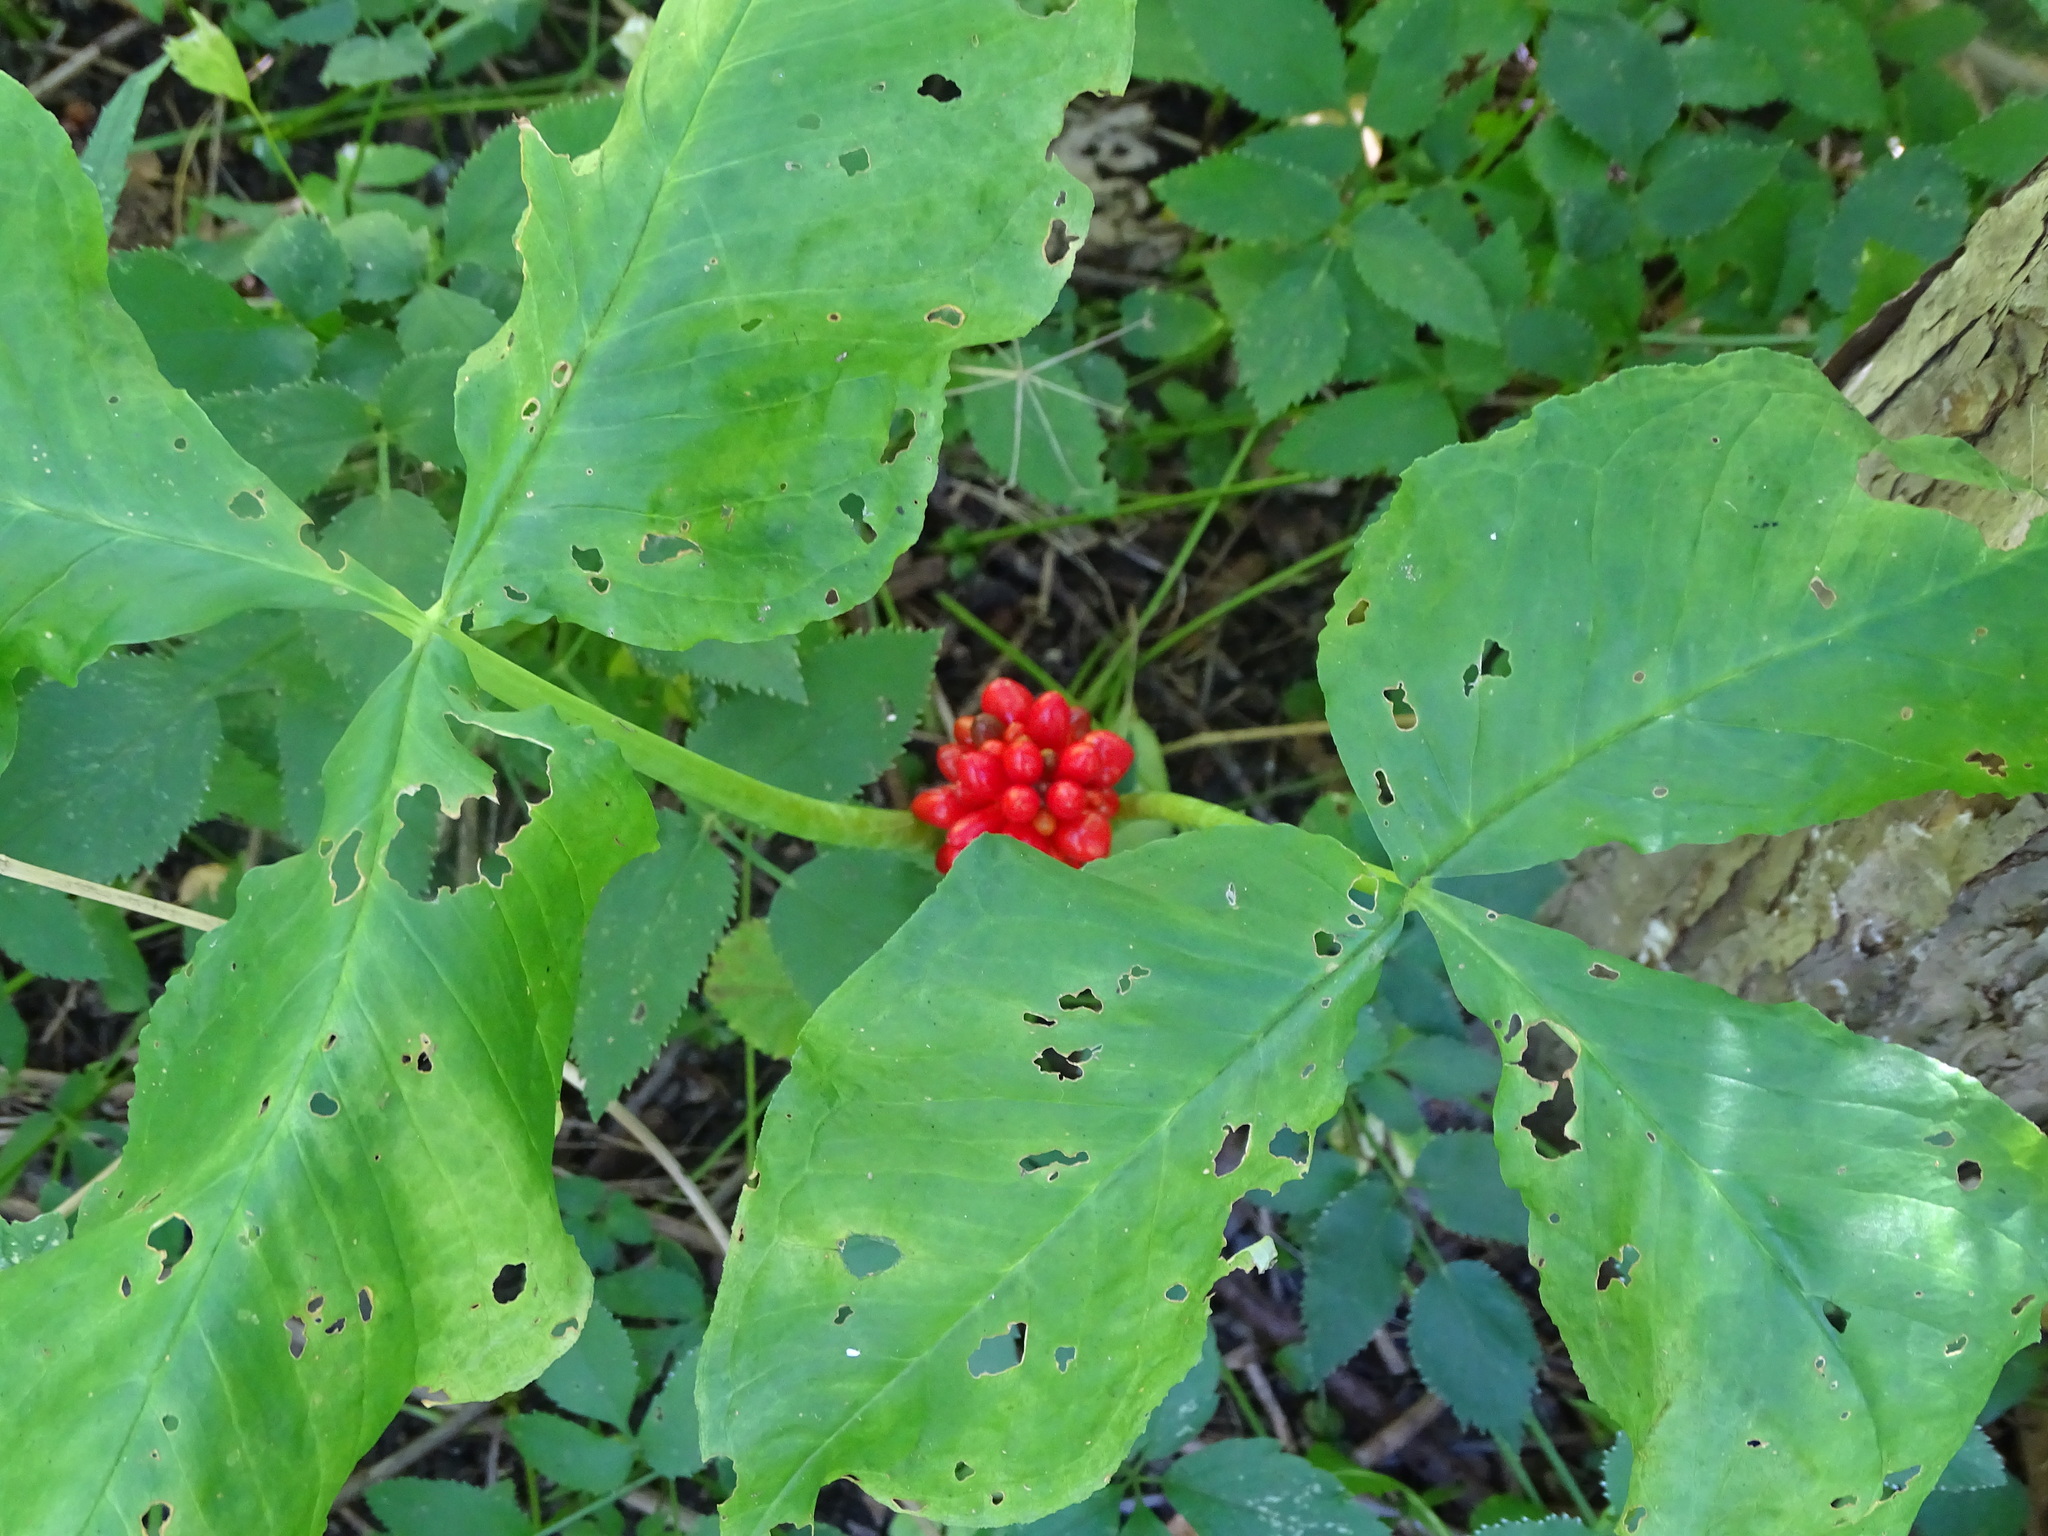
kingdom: Plantae
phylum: Tracheophyta
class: Liliopsida
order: Alismatales
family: Araceae
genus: Arisaema
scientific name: Arisaema triphyllum
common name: Jack-in-the-pulpit
